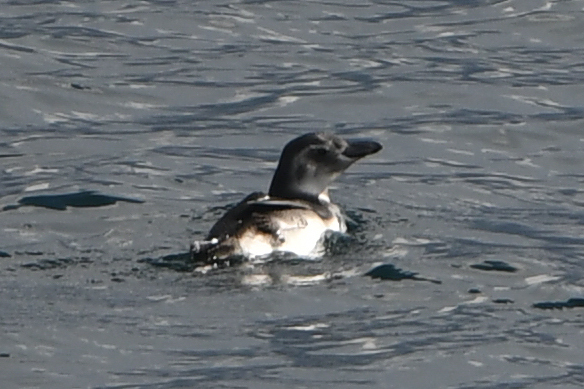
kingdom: Animalia
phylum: Chordata
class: Aves
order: Sphenisciformes
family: Spheniscidae
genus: Spheniscus
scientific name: Spheniscus magellanicus
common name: Magellanic penguin
